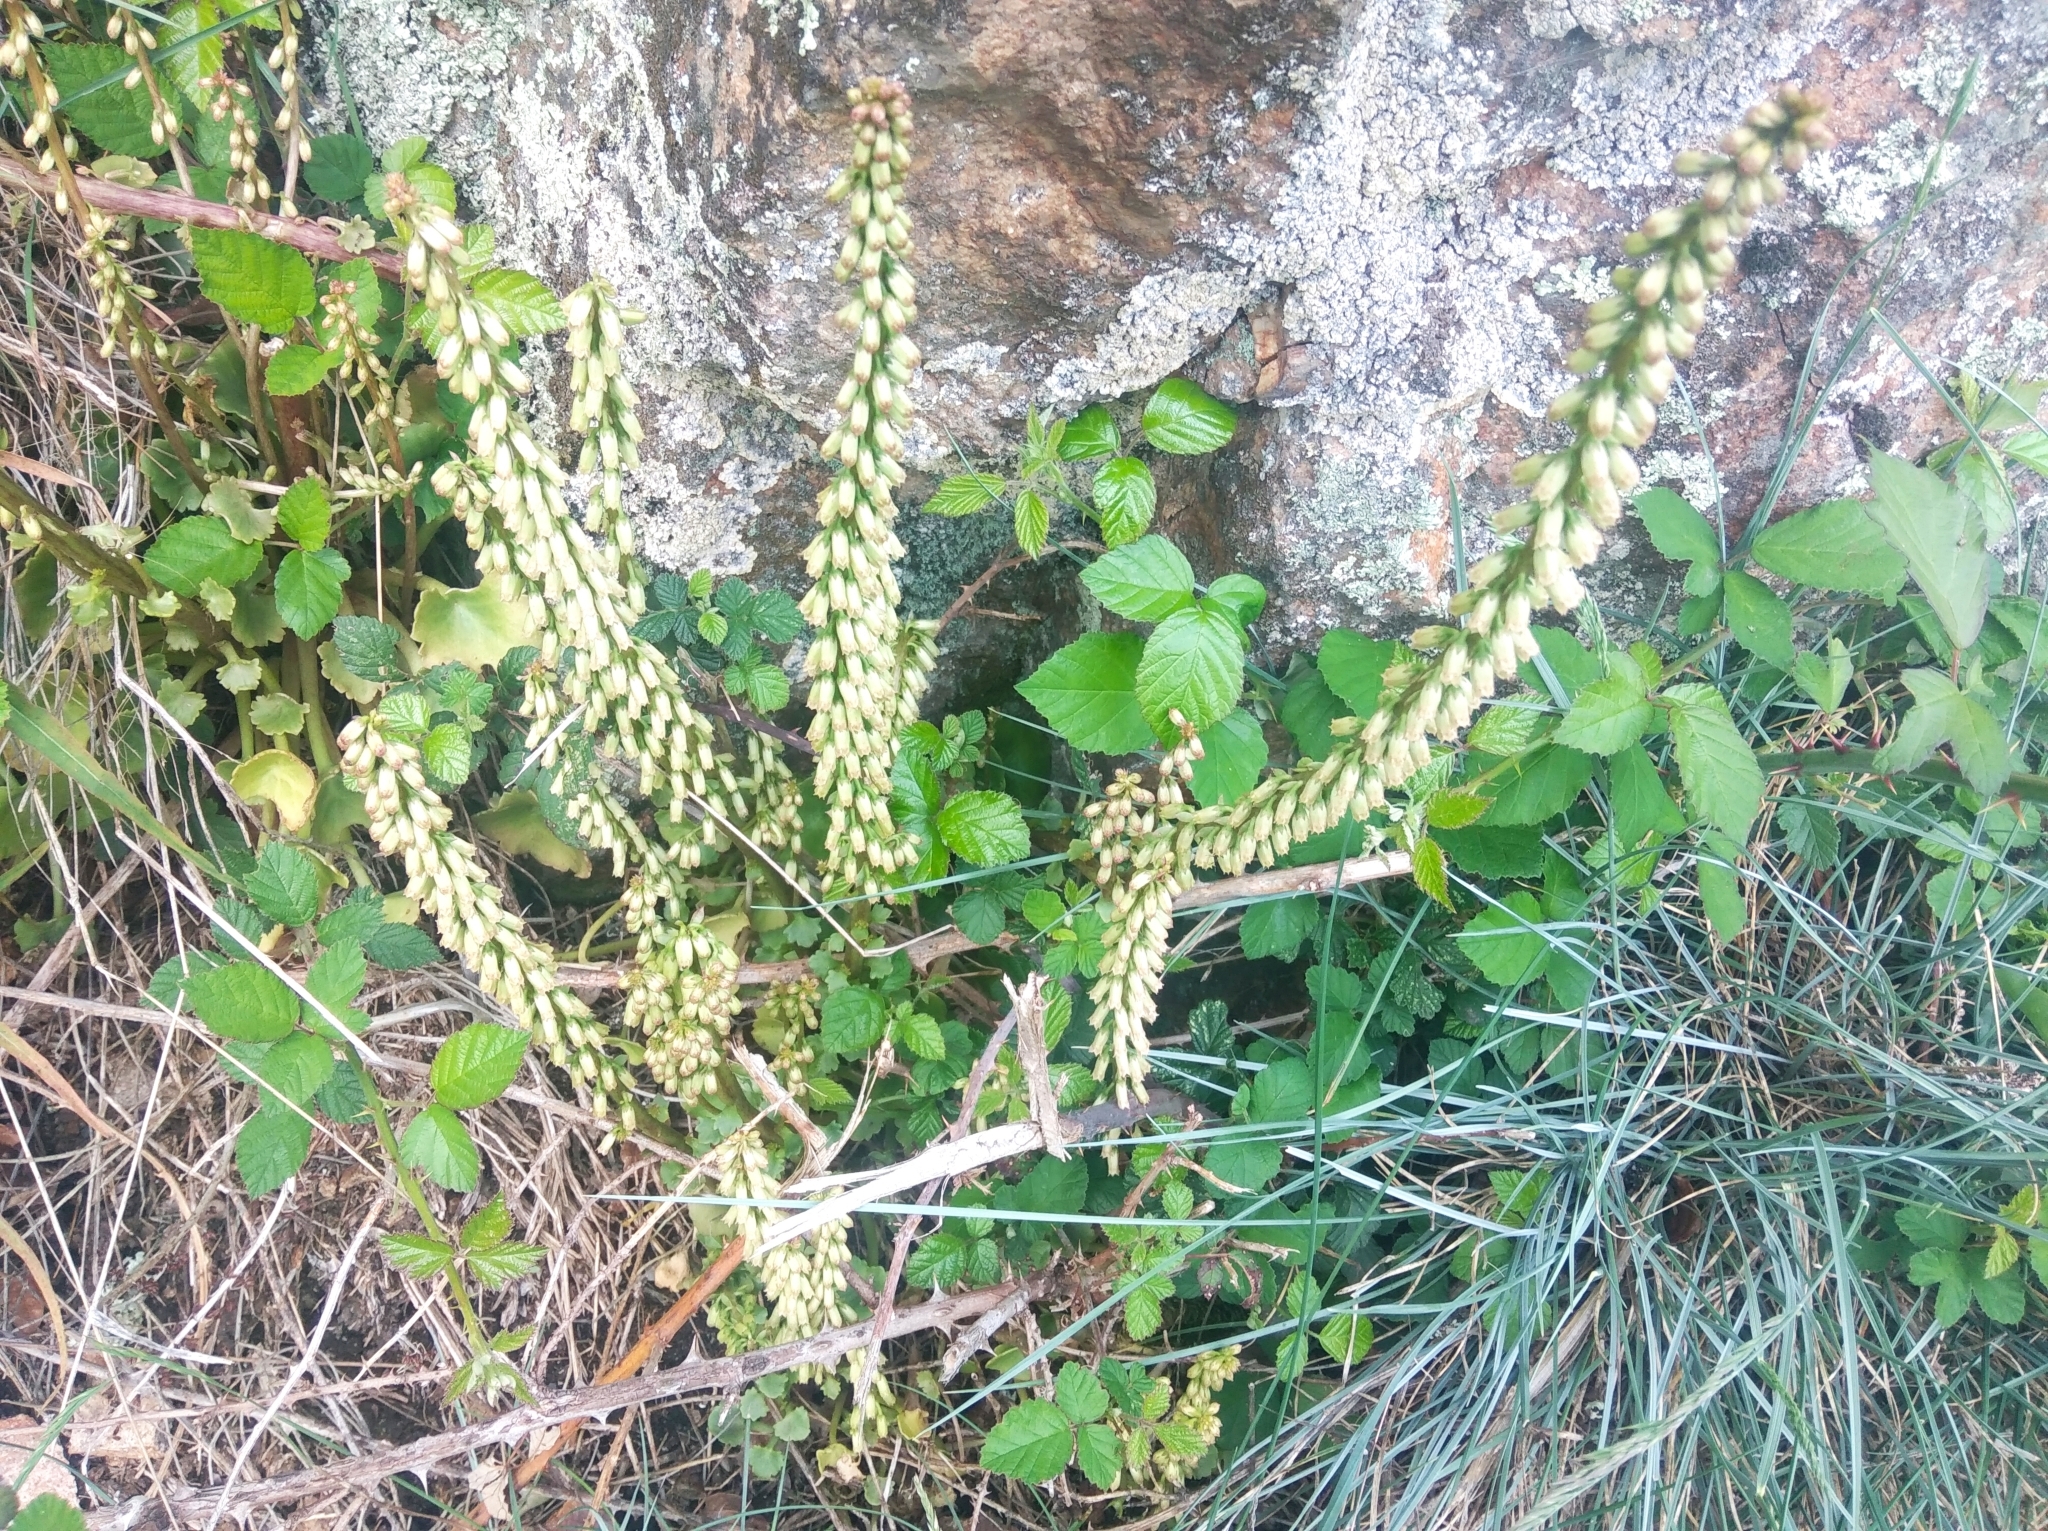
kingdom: Plantae
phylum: Tracheophyta
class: Magnoliopsida
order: Saxifragales
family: Crassulaceae
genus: Umbilicus
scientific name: Umbilicus rupestris
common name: Navelwort
